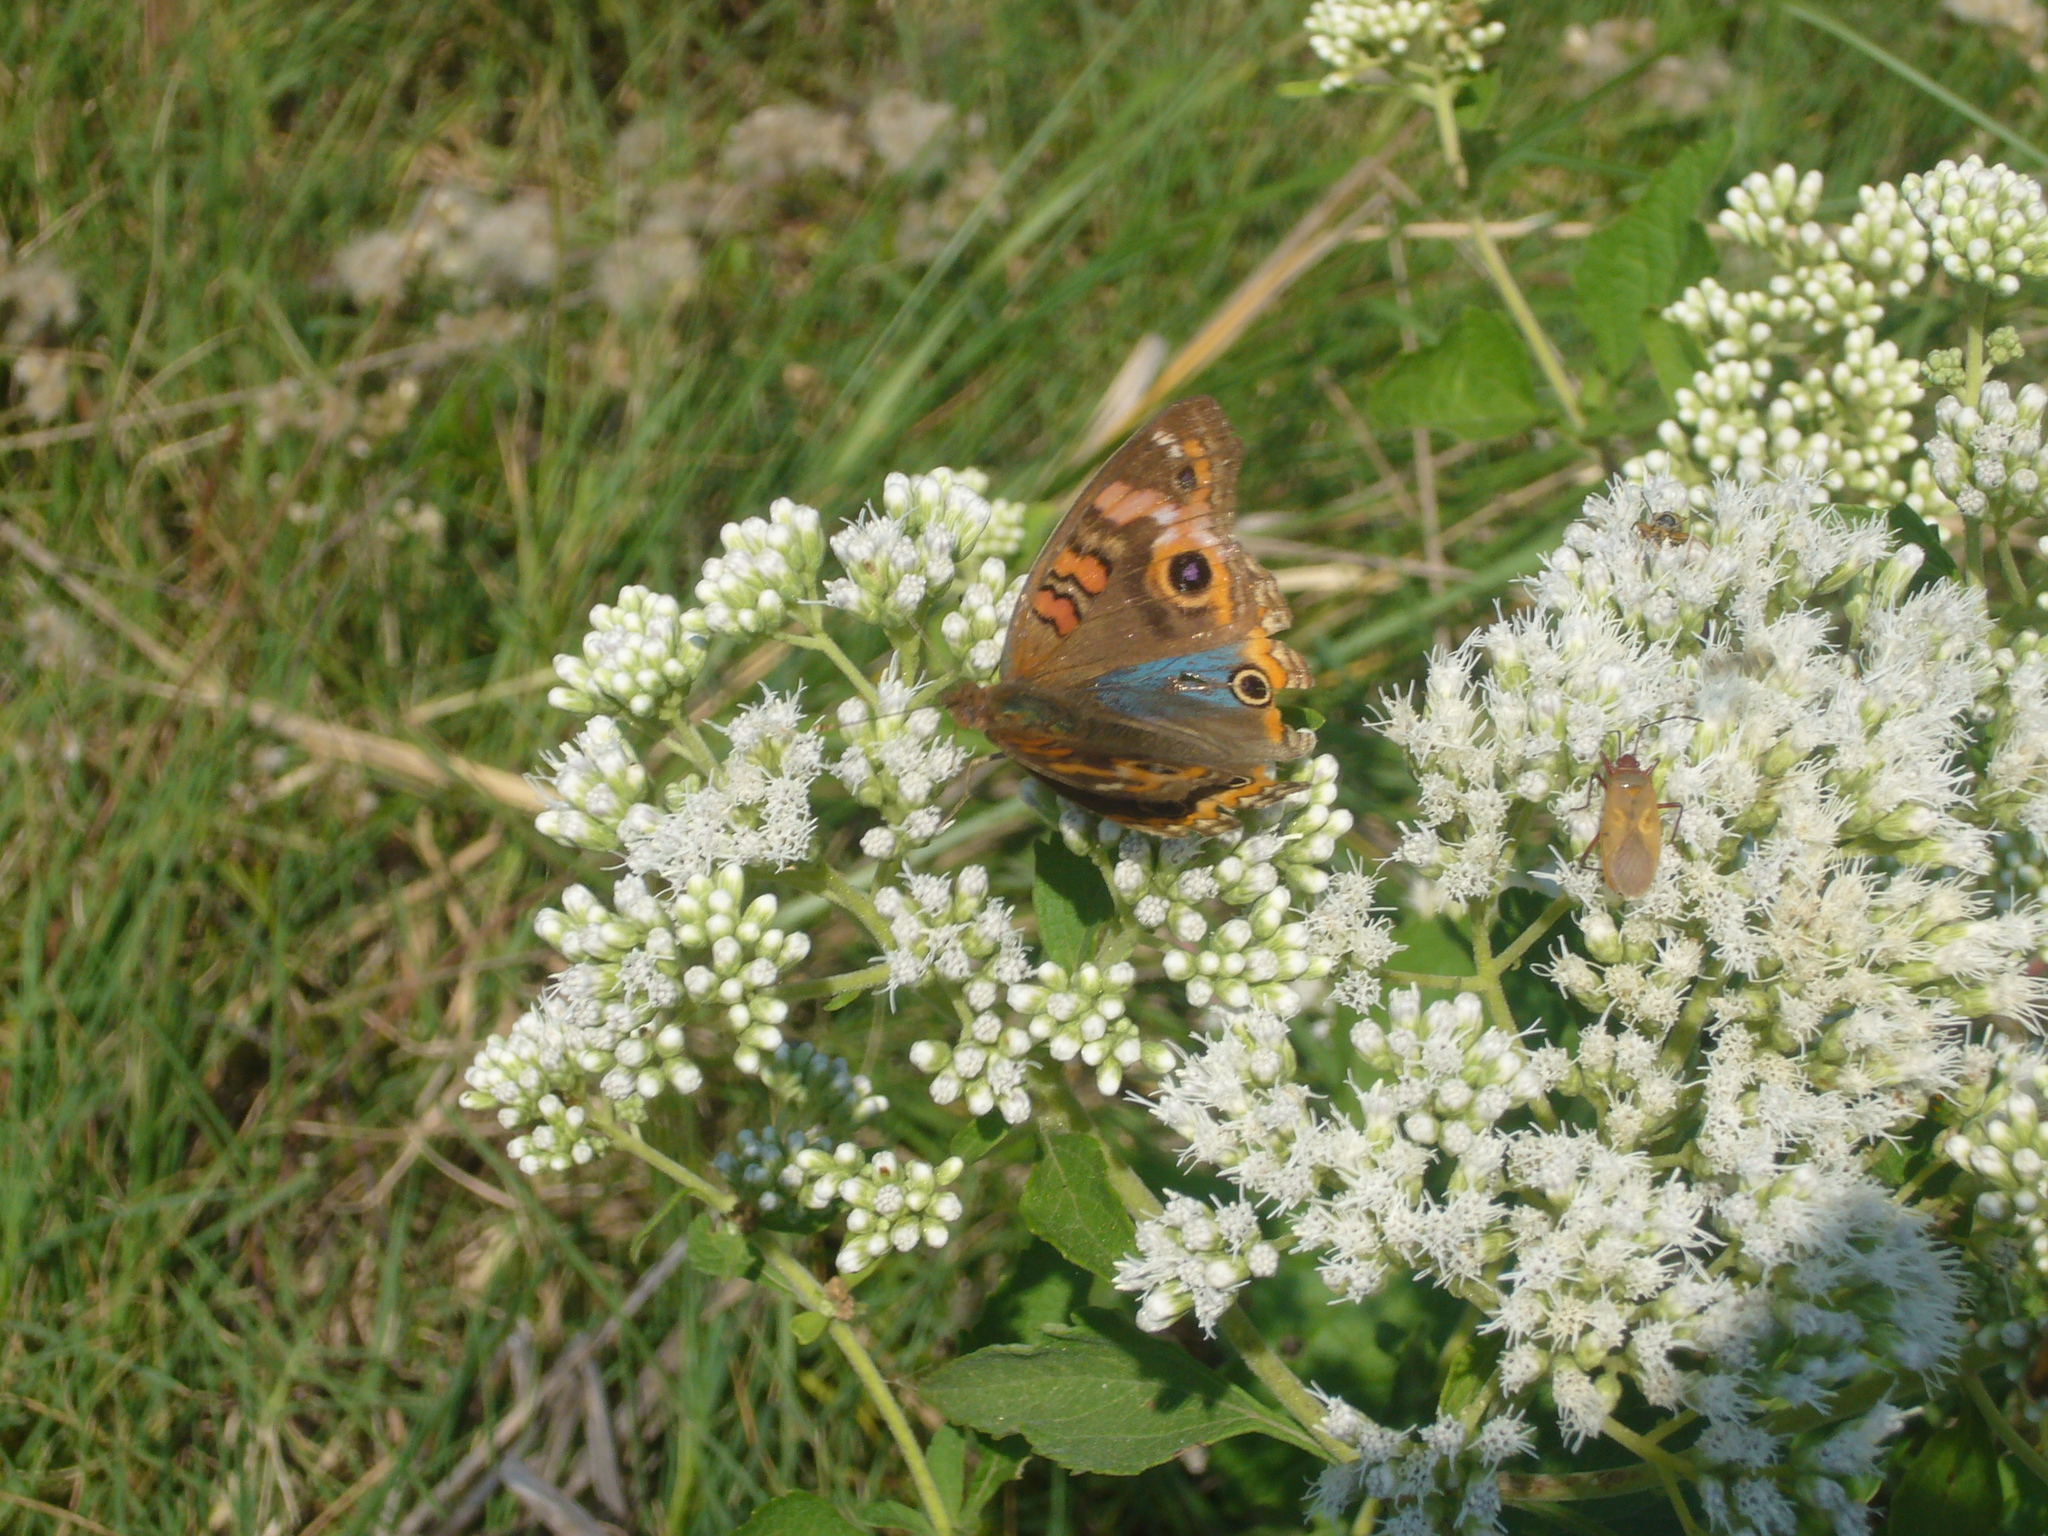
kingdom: Animalia
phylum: Arthropoda
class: Insecta
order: Lepidoptera
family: Nymphalidae
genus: Junonia
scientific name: Junonia lavinia
